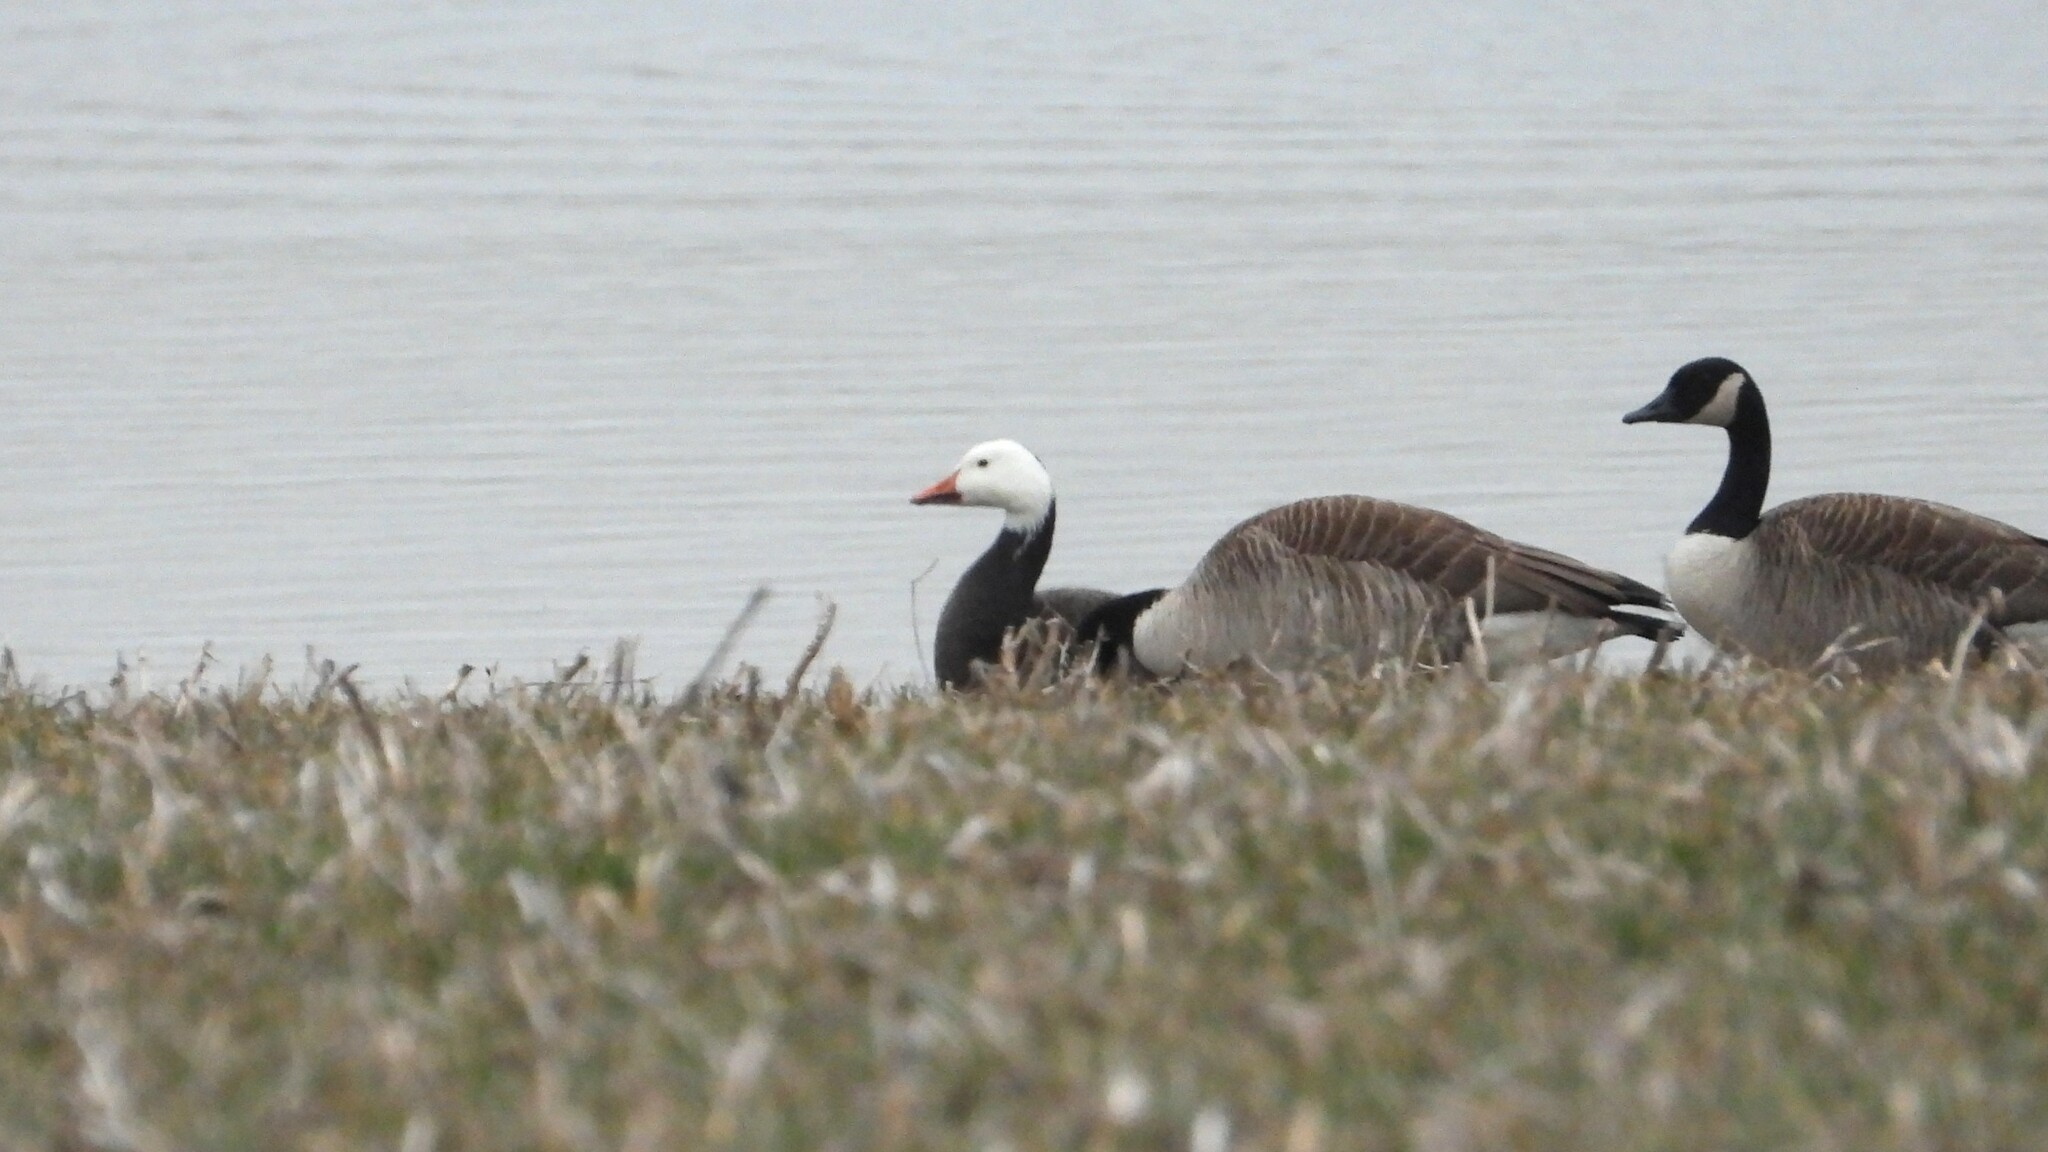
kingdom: Animalia
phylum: Chordata
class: Aves
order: Anseriformes
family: Anatidae
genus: Anser
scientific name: Anser caerulescens
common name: Snow goose
